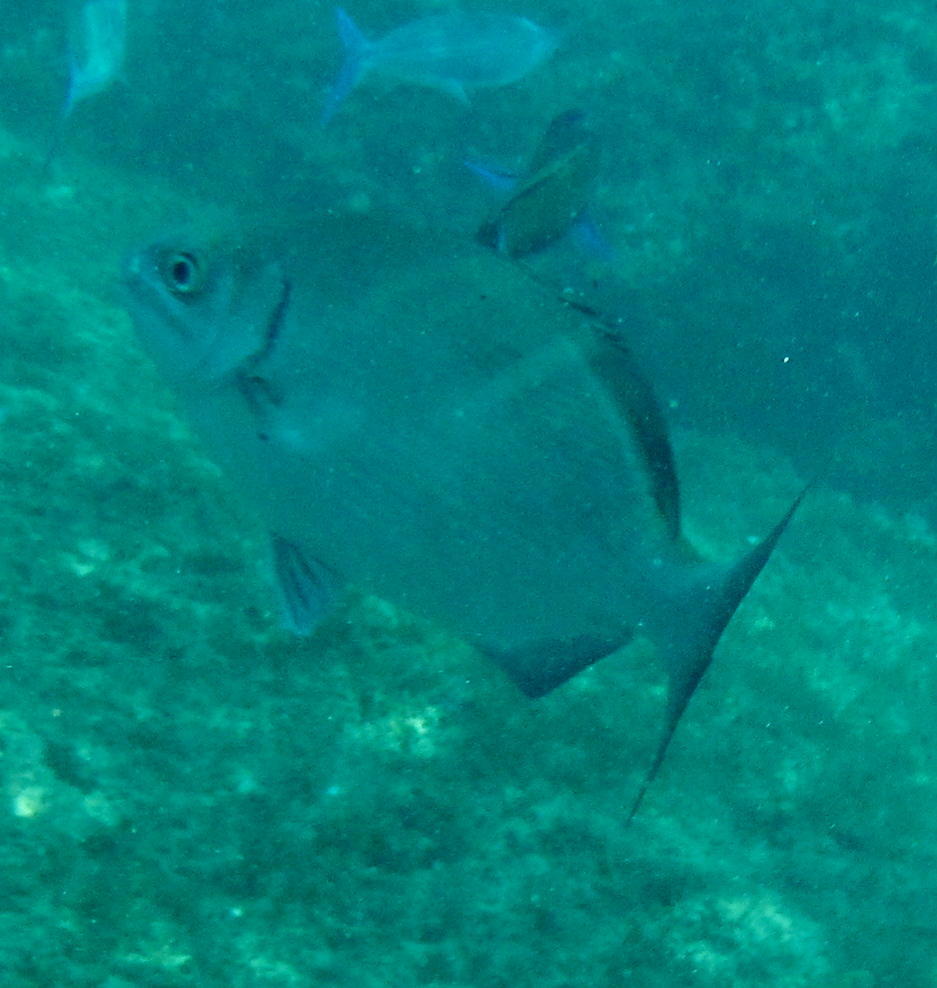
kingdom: Animalia
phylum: Chordata
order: Perciformes
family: Kyphosidae
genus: Kyphosus
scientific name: Kyphosus vaigiensis
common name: Brassy chub
